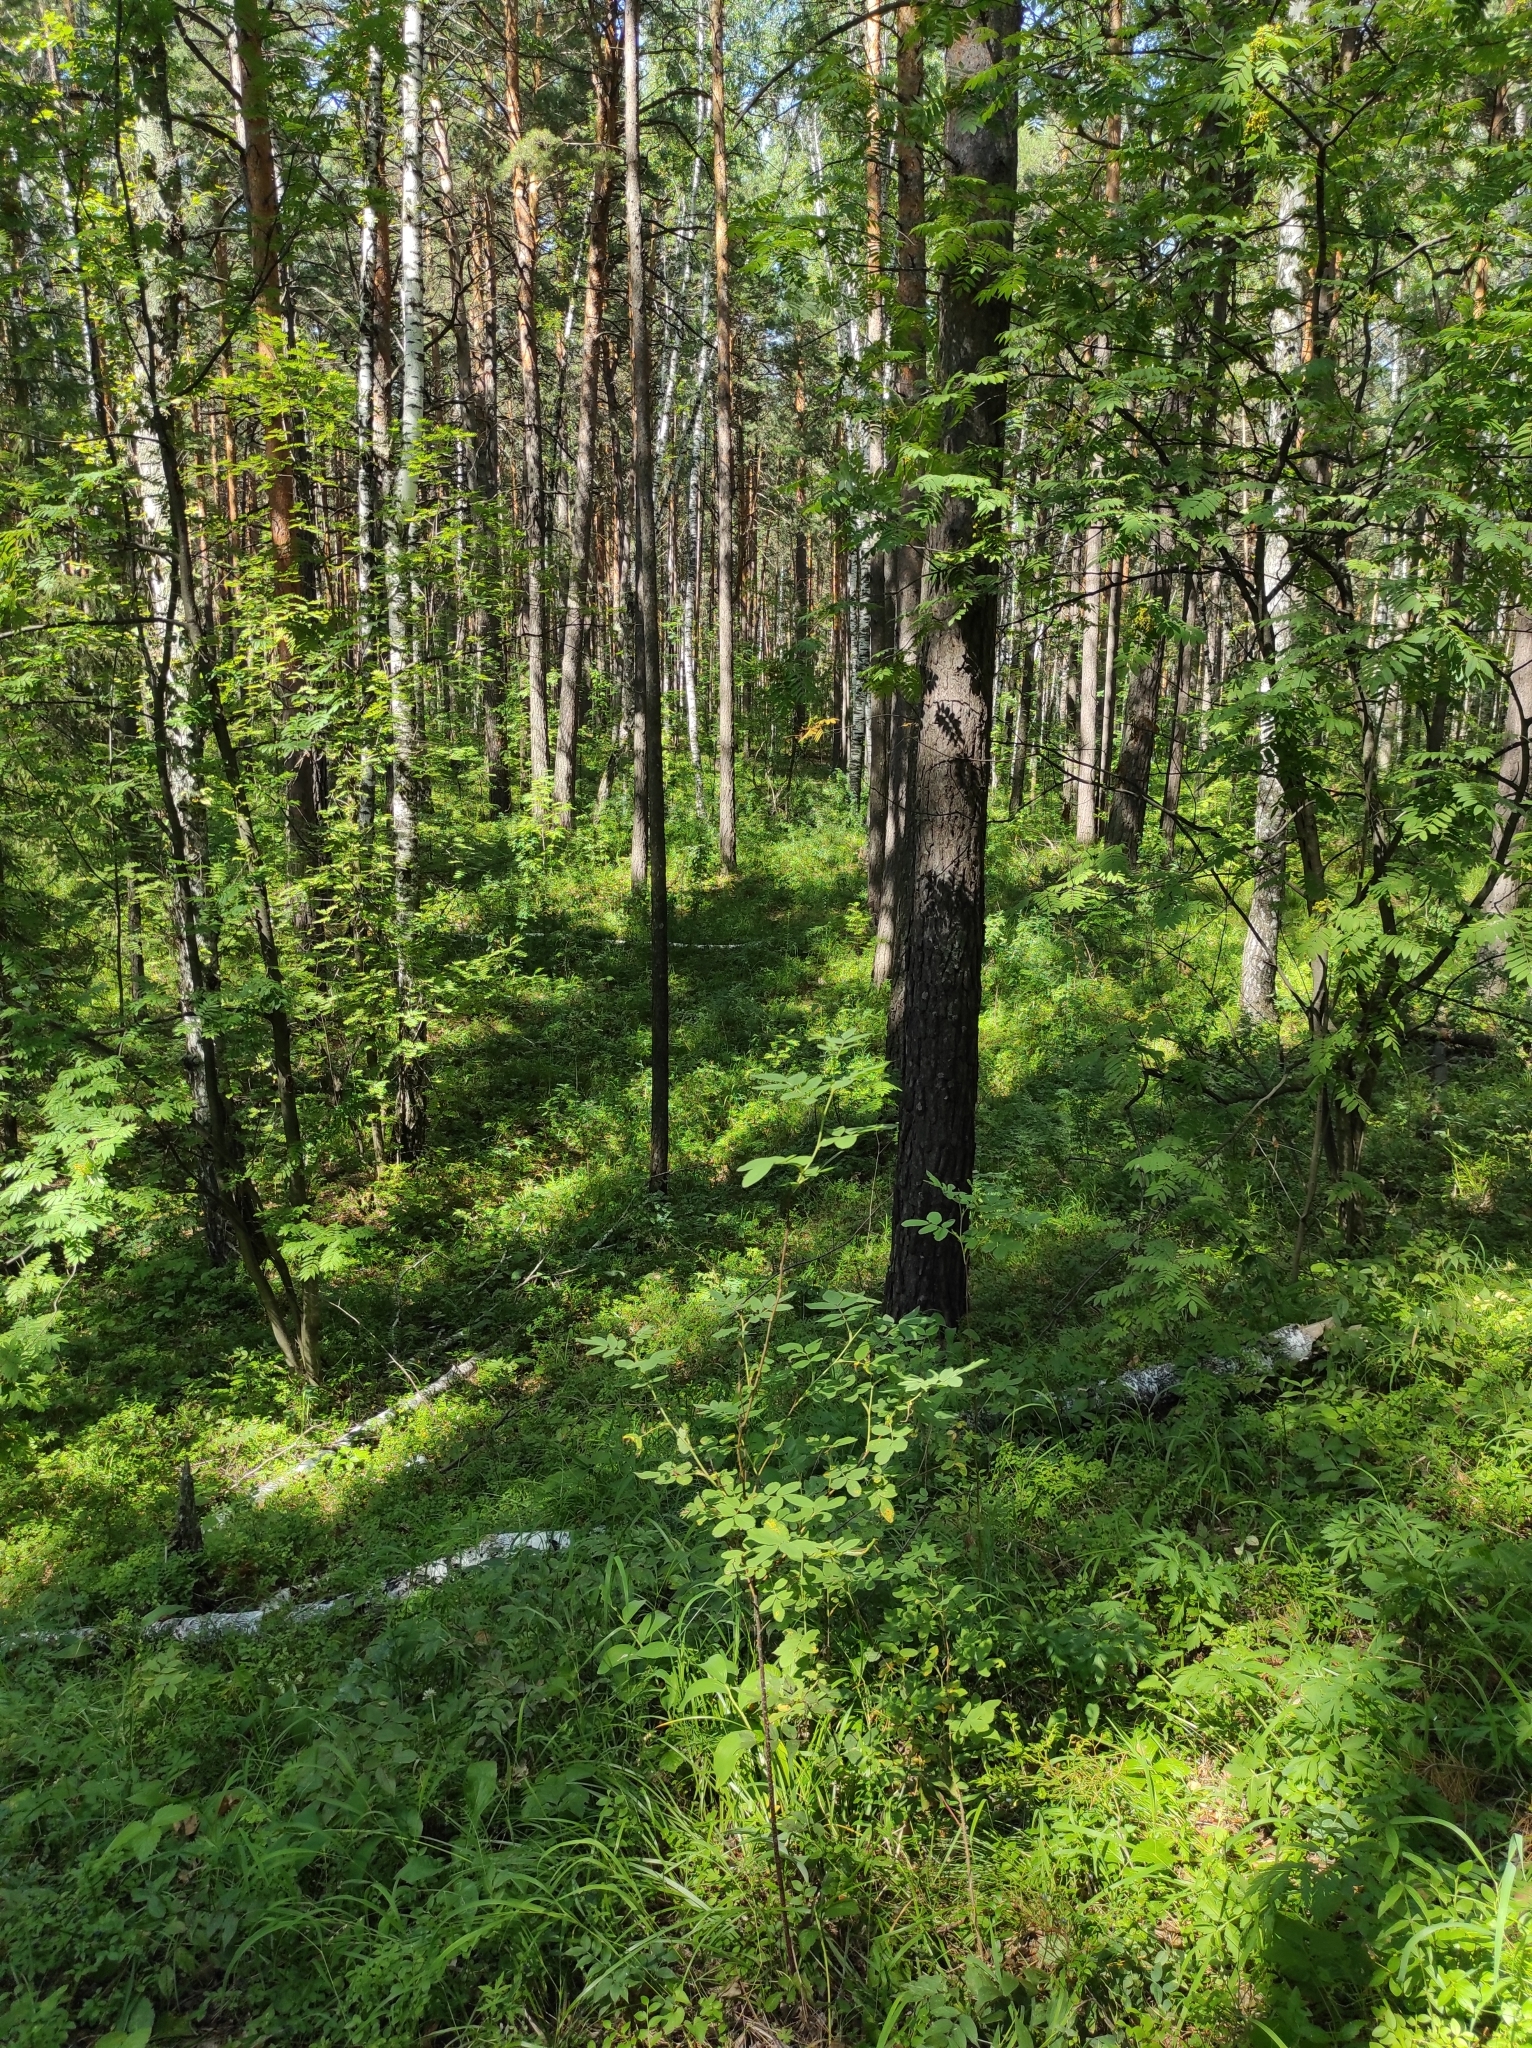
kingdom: Plantae
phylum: Tracheophyta
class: Pinopsida
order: Pinales
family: Pinaceae
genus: Pinus
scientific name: Pinus sylvestris
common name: Scots pine
